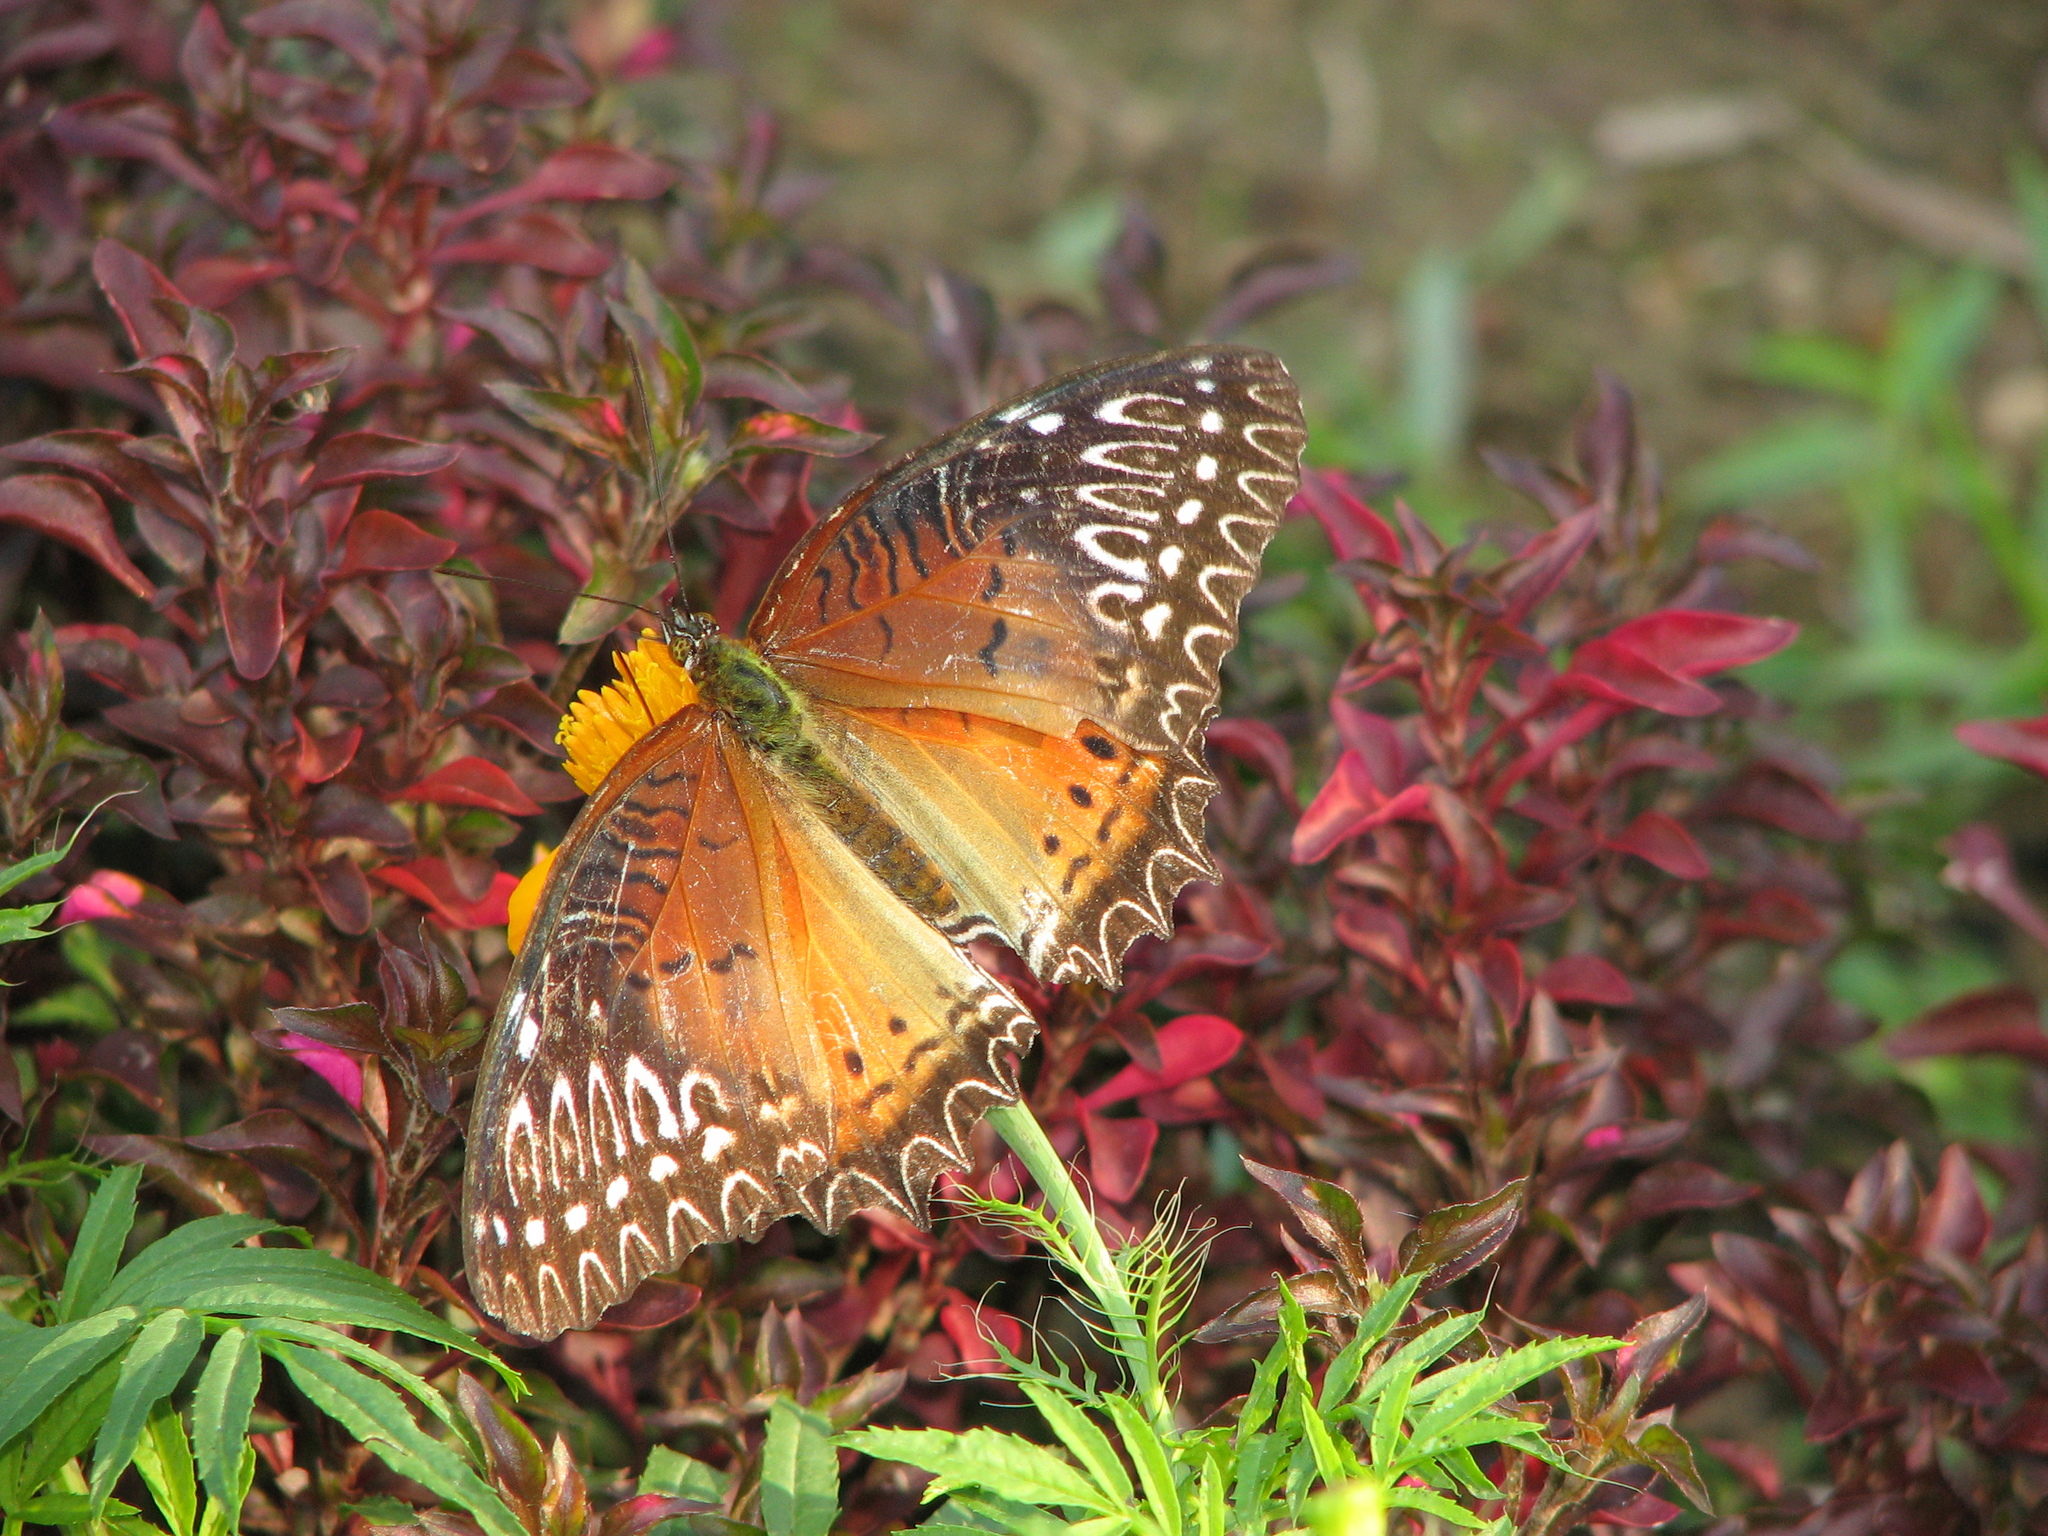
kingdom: Animalia
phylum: Arthropoda
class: Insecta
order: Lepidoptera
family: Nymphalidae
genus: Cethosia
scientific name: Cethosia biblis
